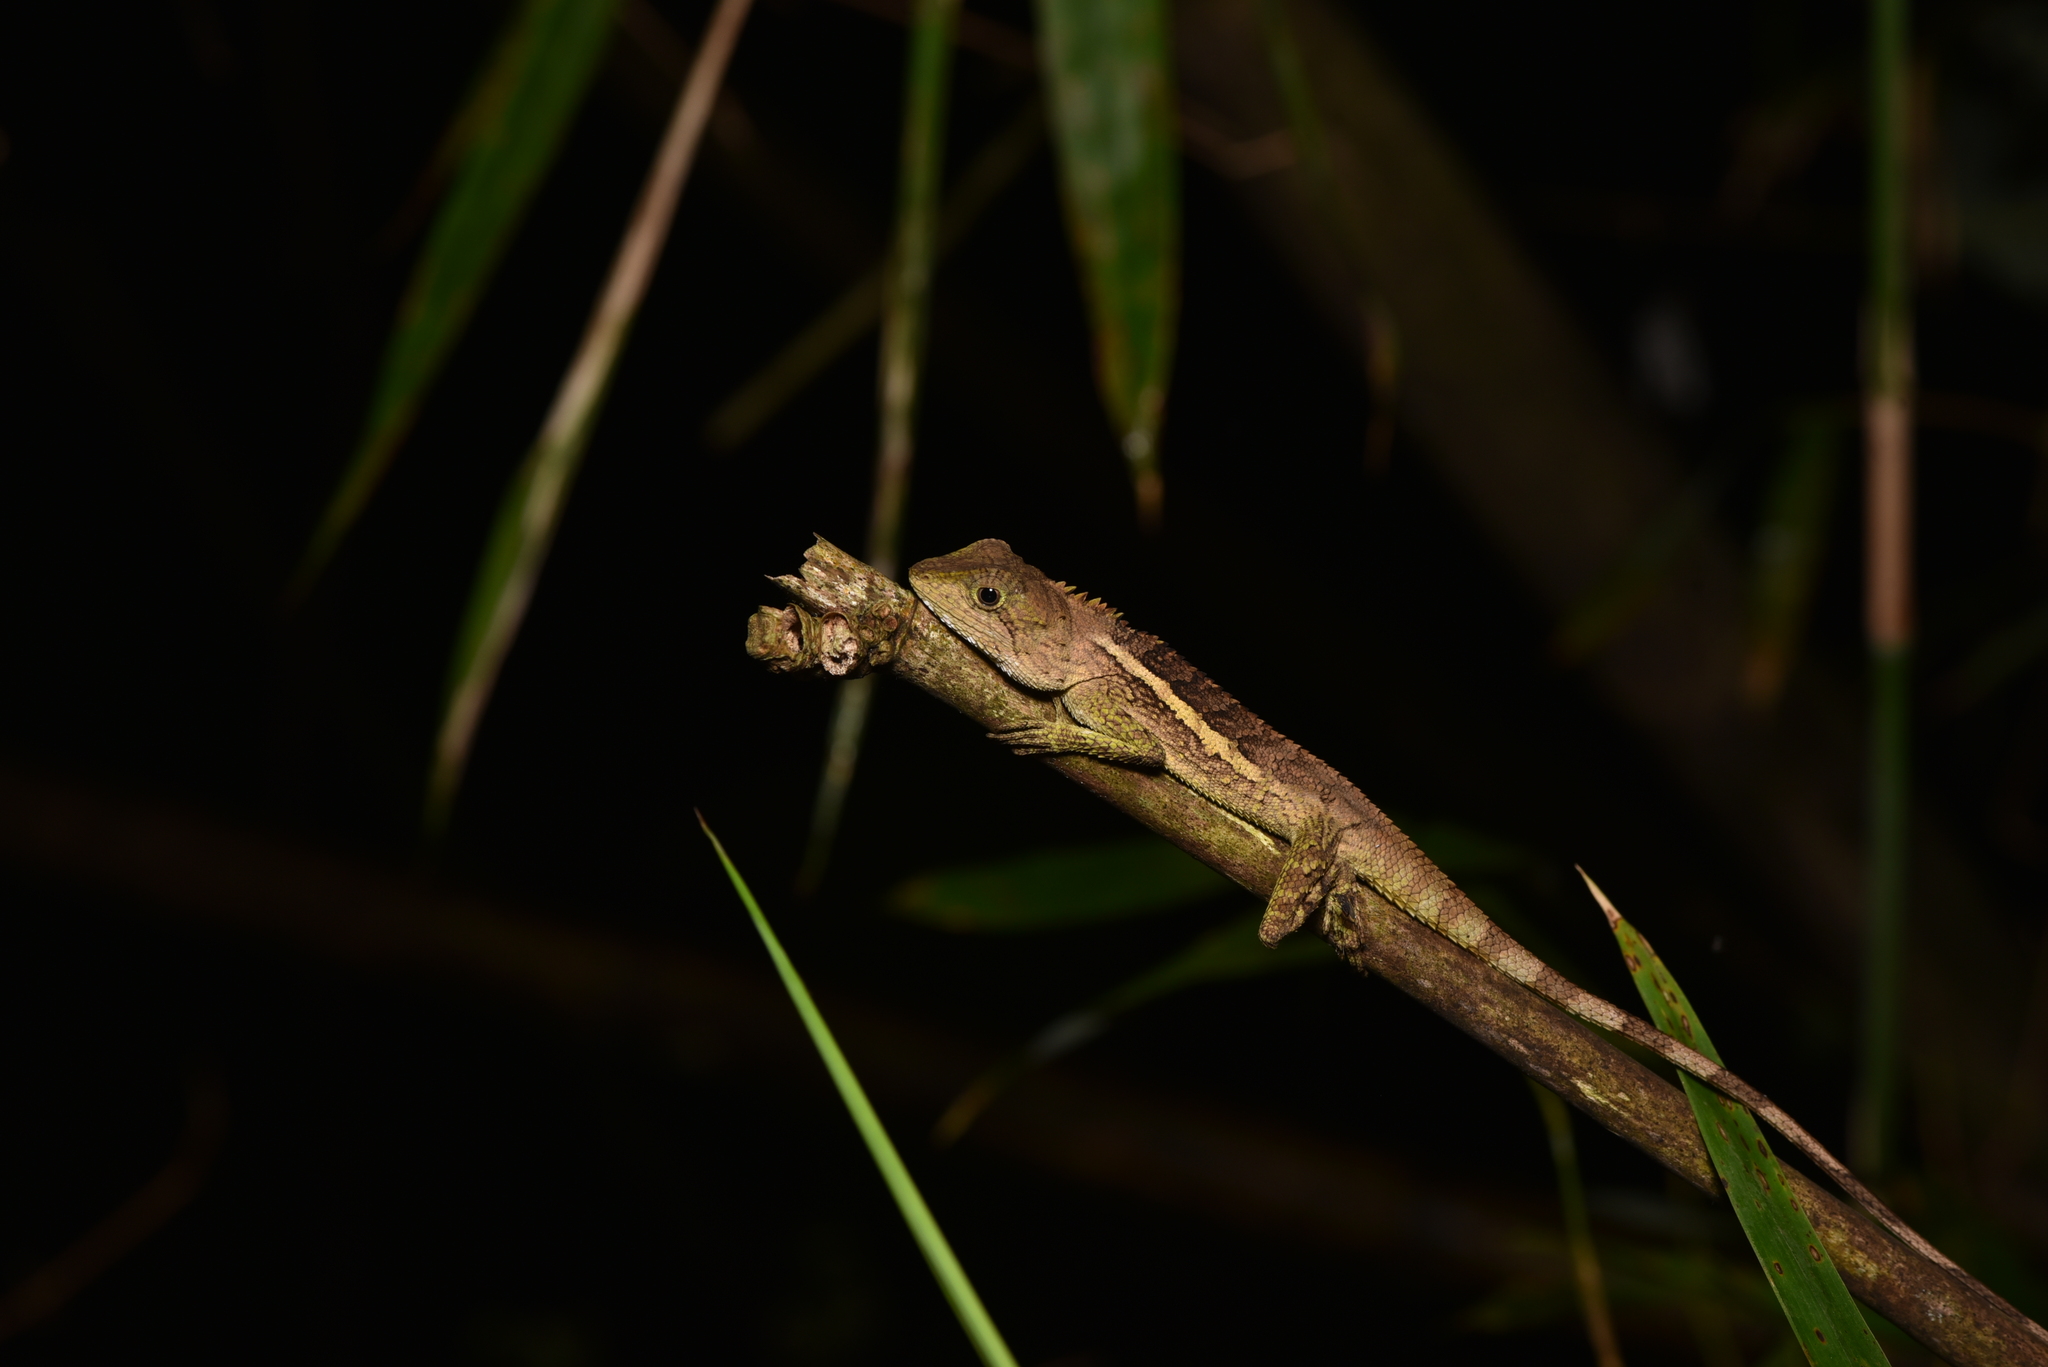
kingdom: Animalia
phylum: Chordata
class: Squamata
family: Agamidae
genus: Diploderma
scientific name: Diploderma swinhonis
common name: Taiwan japalure
